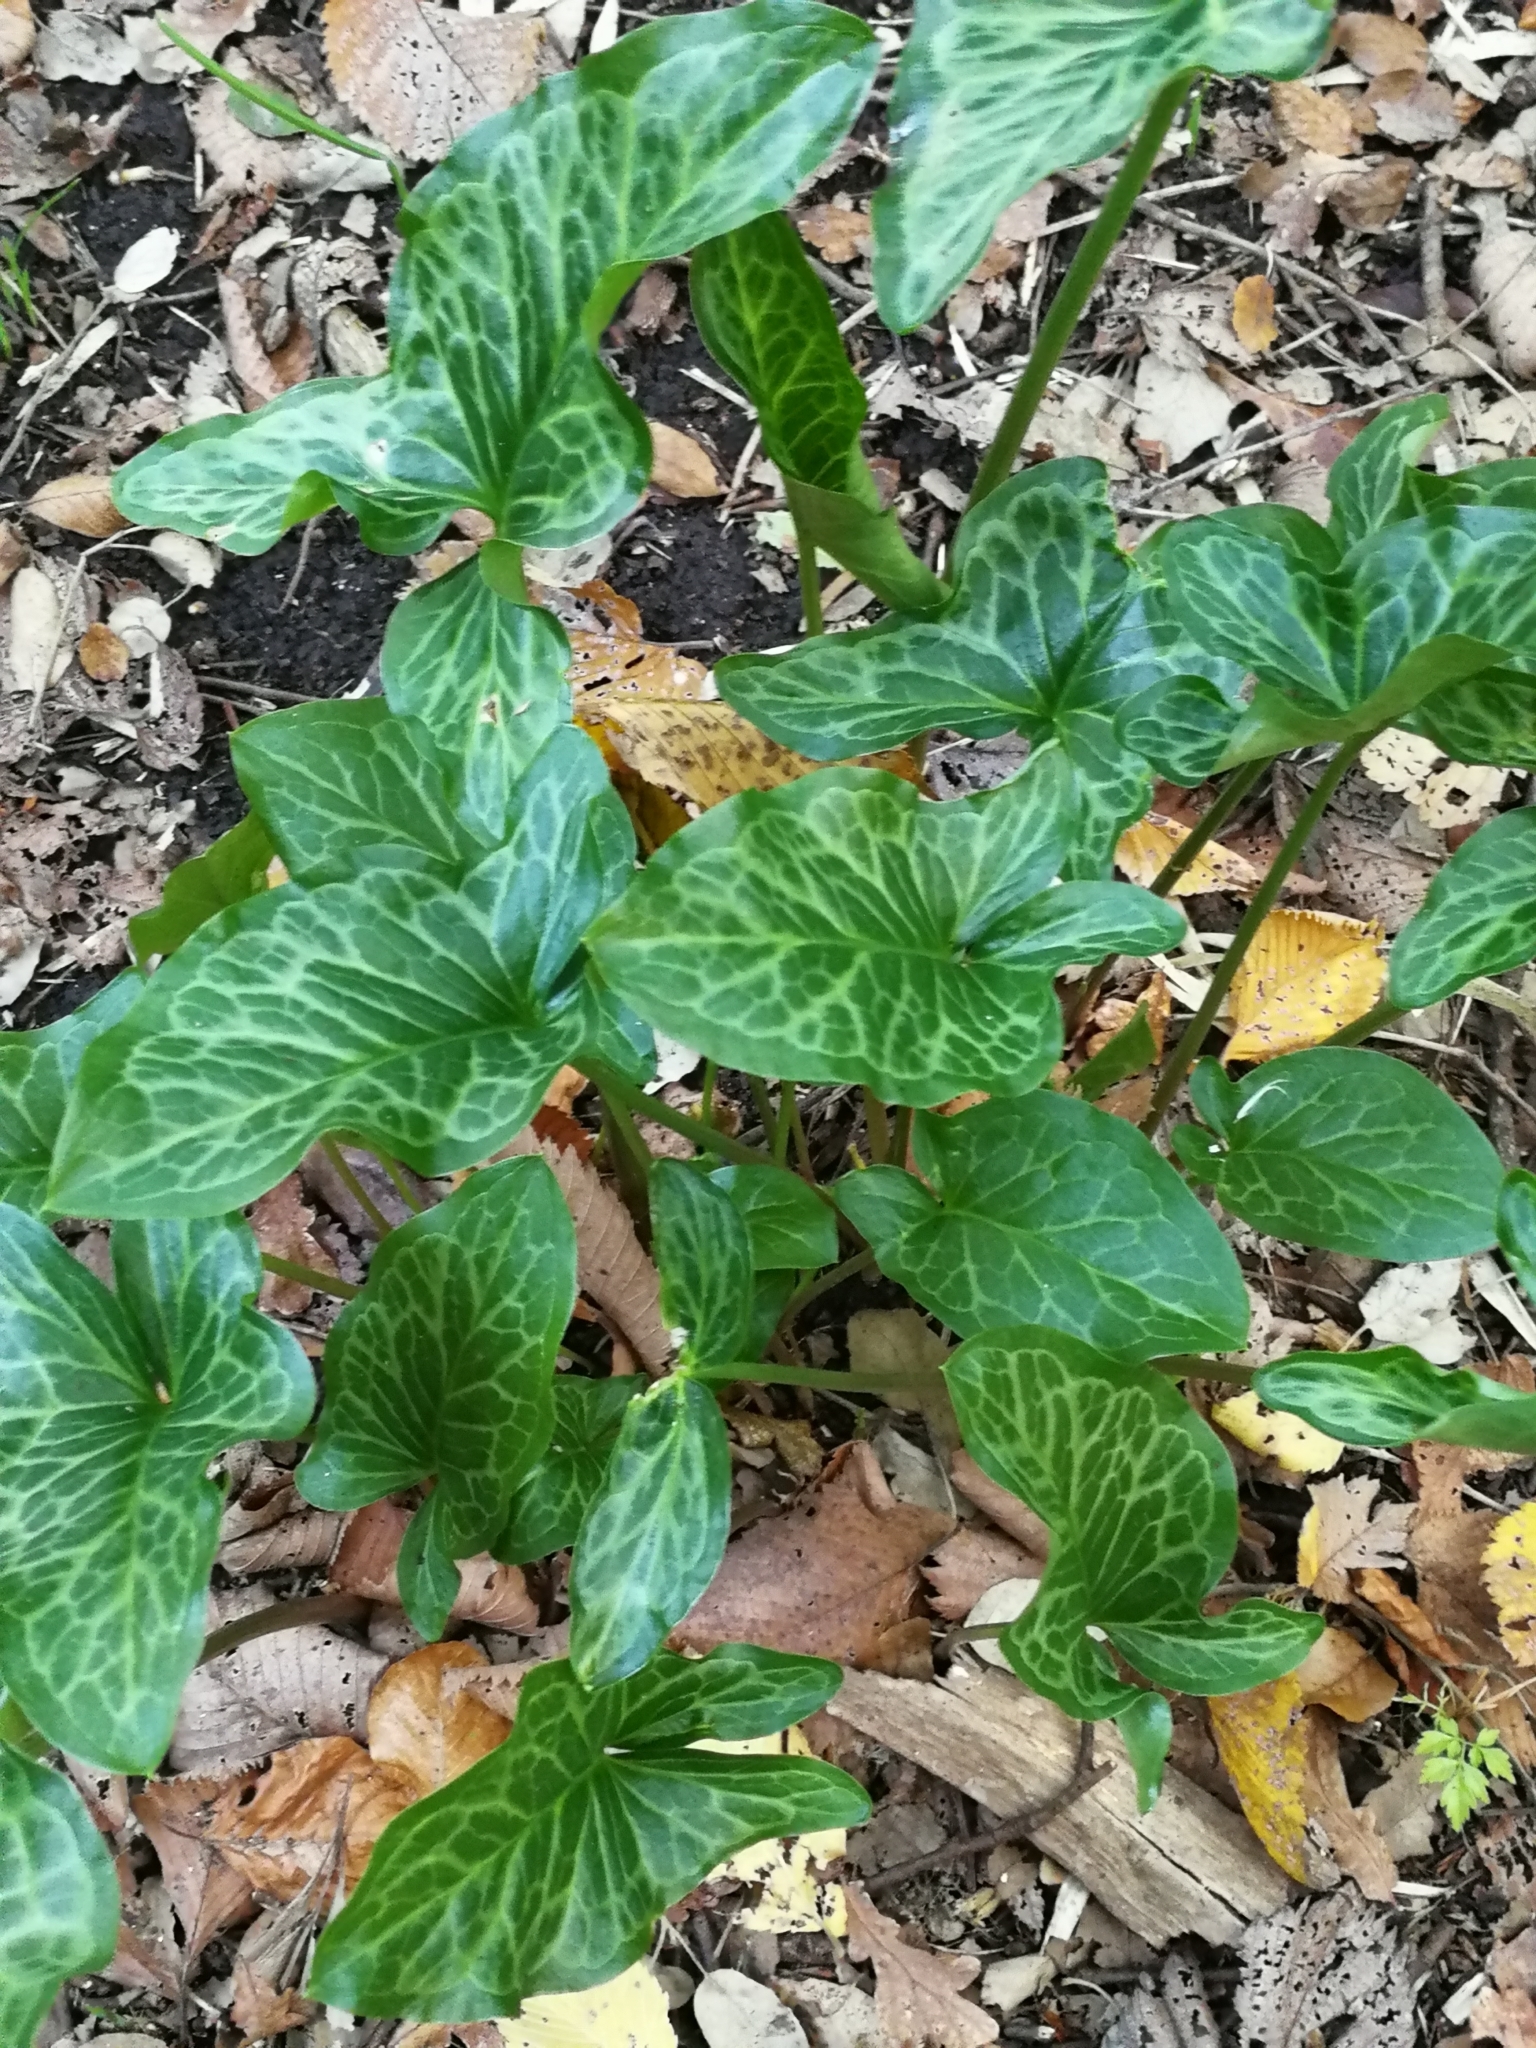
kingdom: Plantae
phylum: Tracheophyta
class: Liliopsida
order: Alismatales
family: Araceae
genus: Arum
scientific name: Arum italicum
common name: Italian lords-and-ladies
